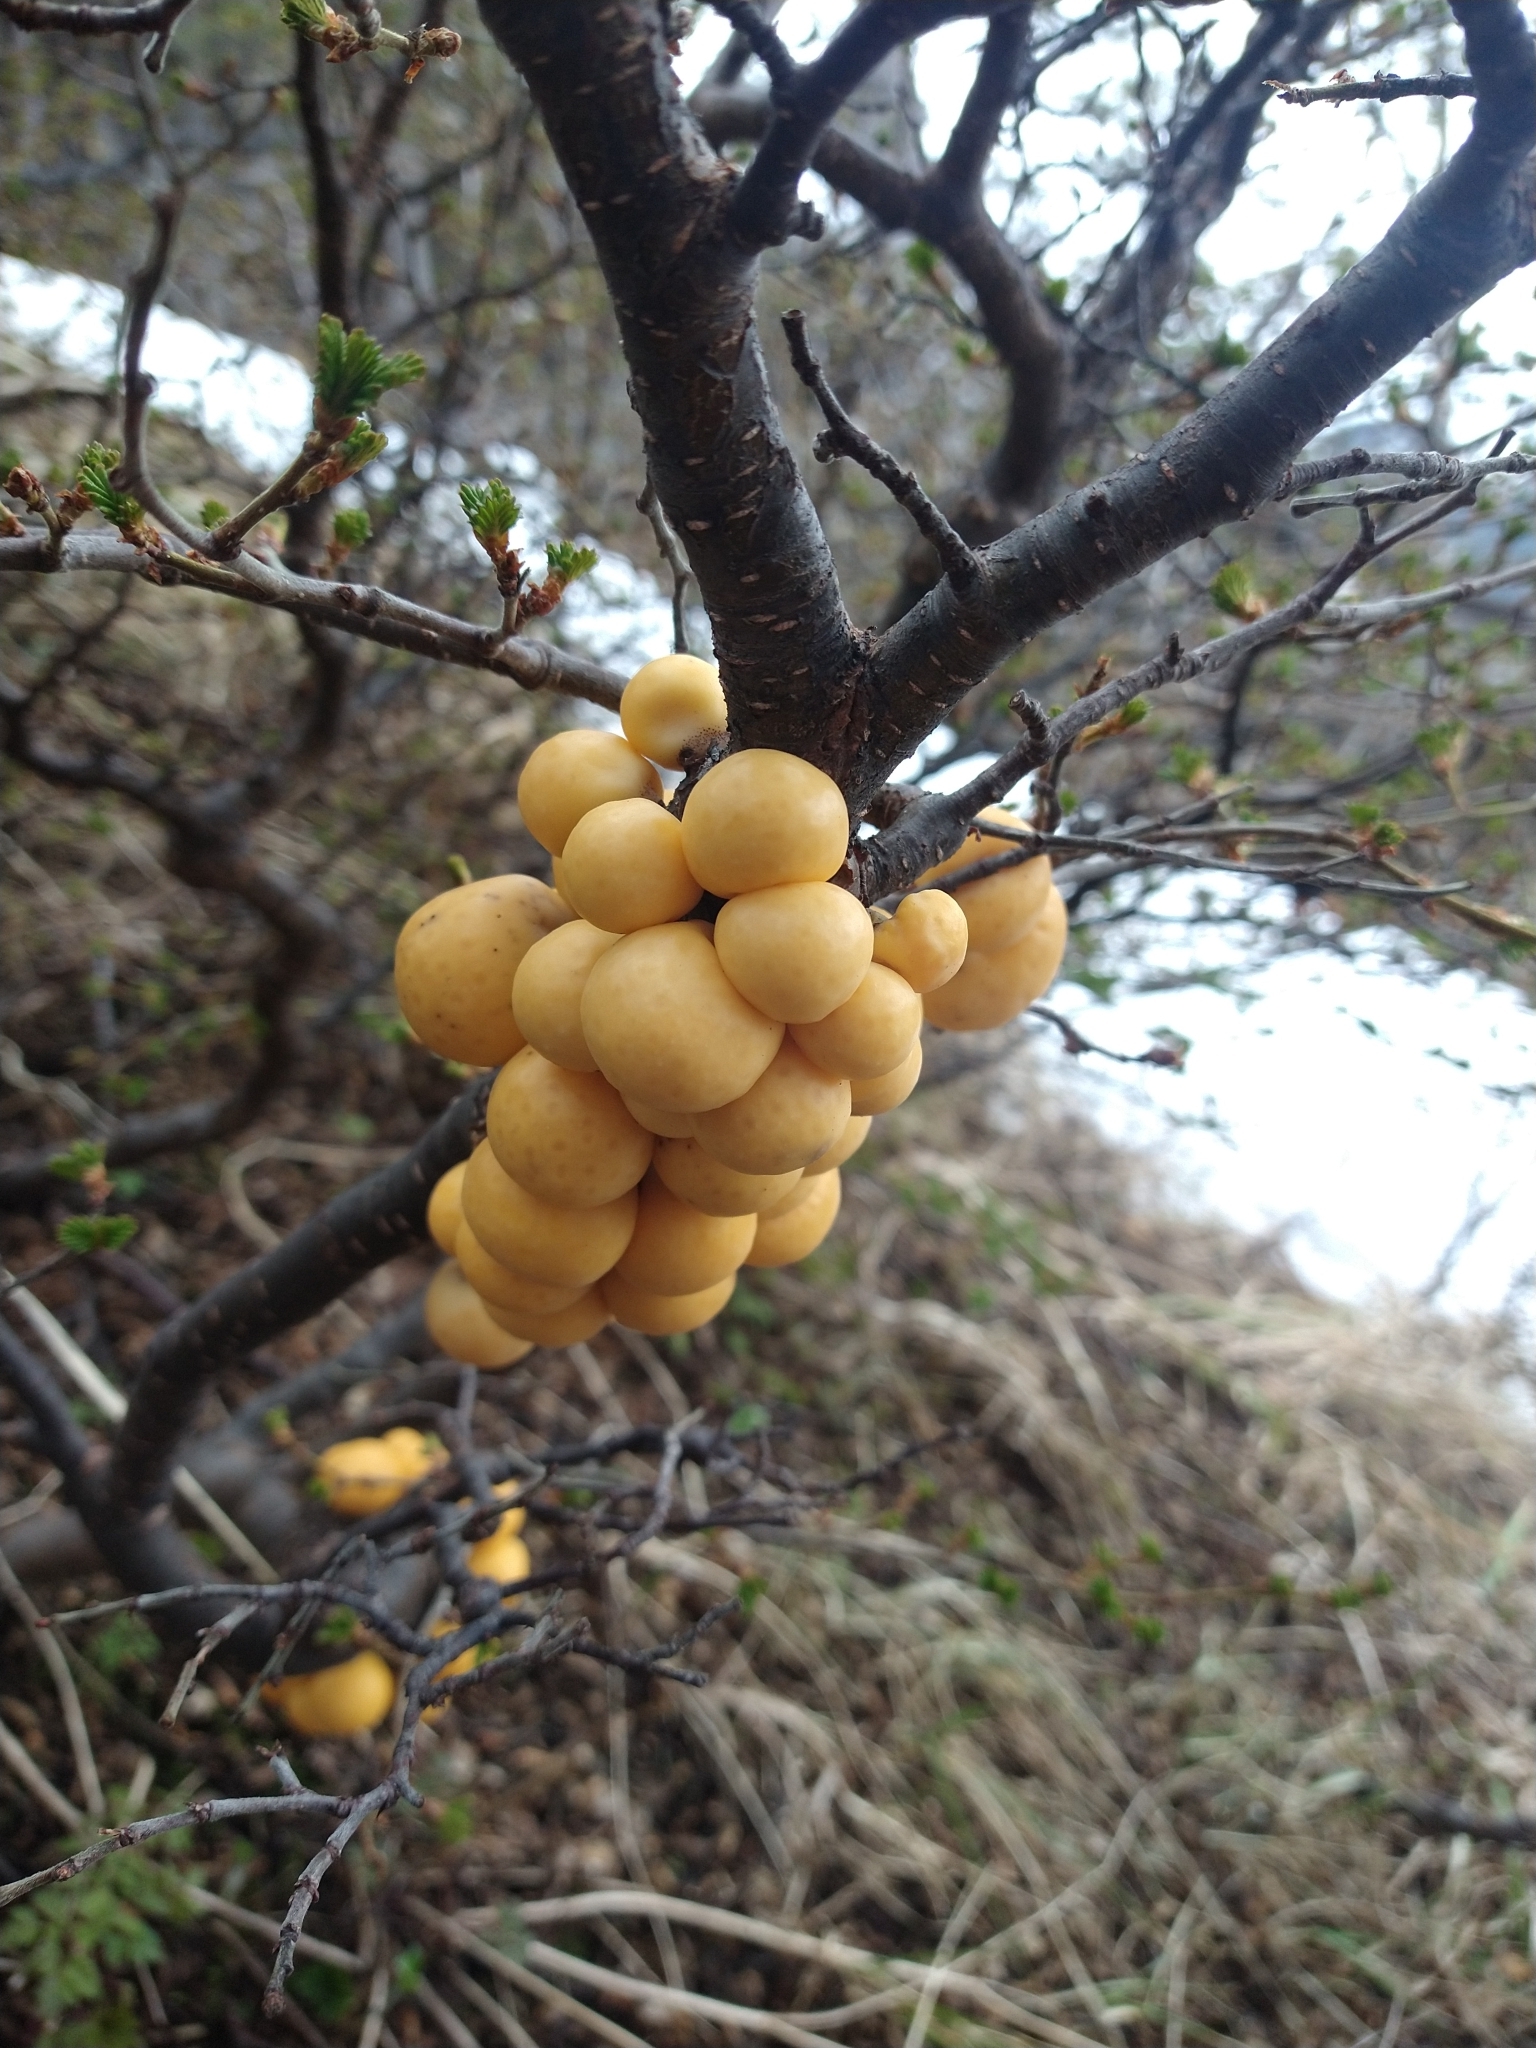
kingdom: Fungi
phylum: Ascomycota
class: Leotiomycetes
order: Cyttariales
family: Cyttariaceae
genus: Cyttaria
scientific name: Cyttaria darwinii
